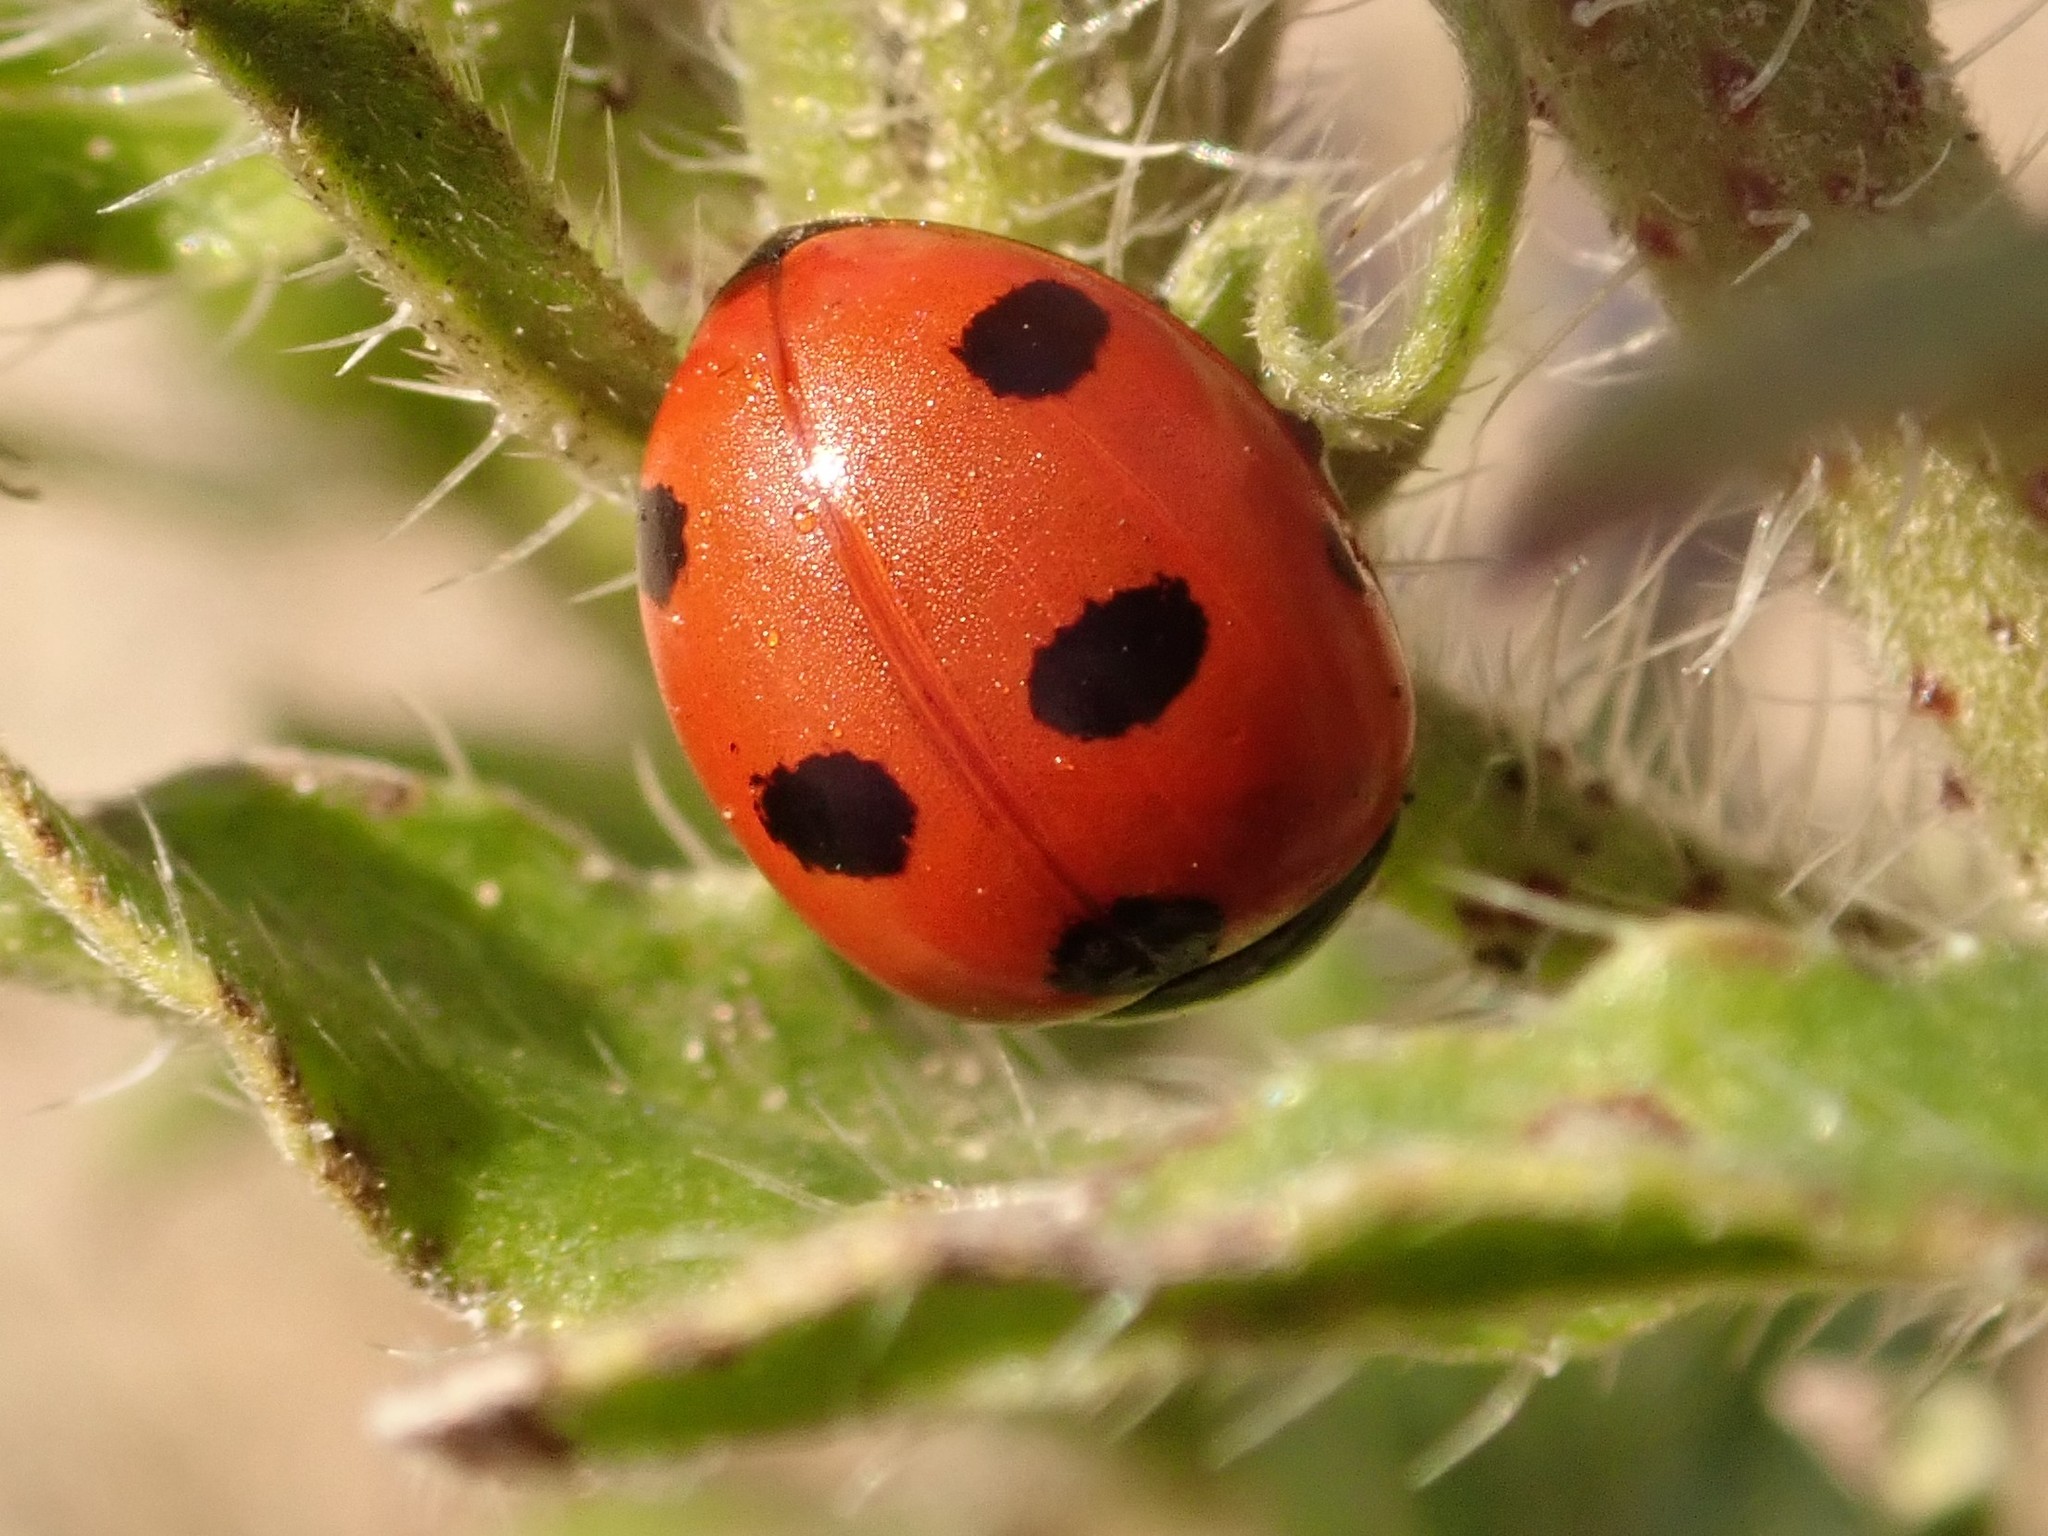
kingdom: Animalia
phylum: Arthropoda
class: Insecta
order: Coleoptera
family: Coccinellidae
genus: Coccinella
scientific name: Coccinella septempunctata
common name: Sevenspotted lady beetle
